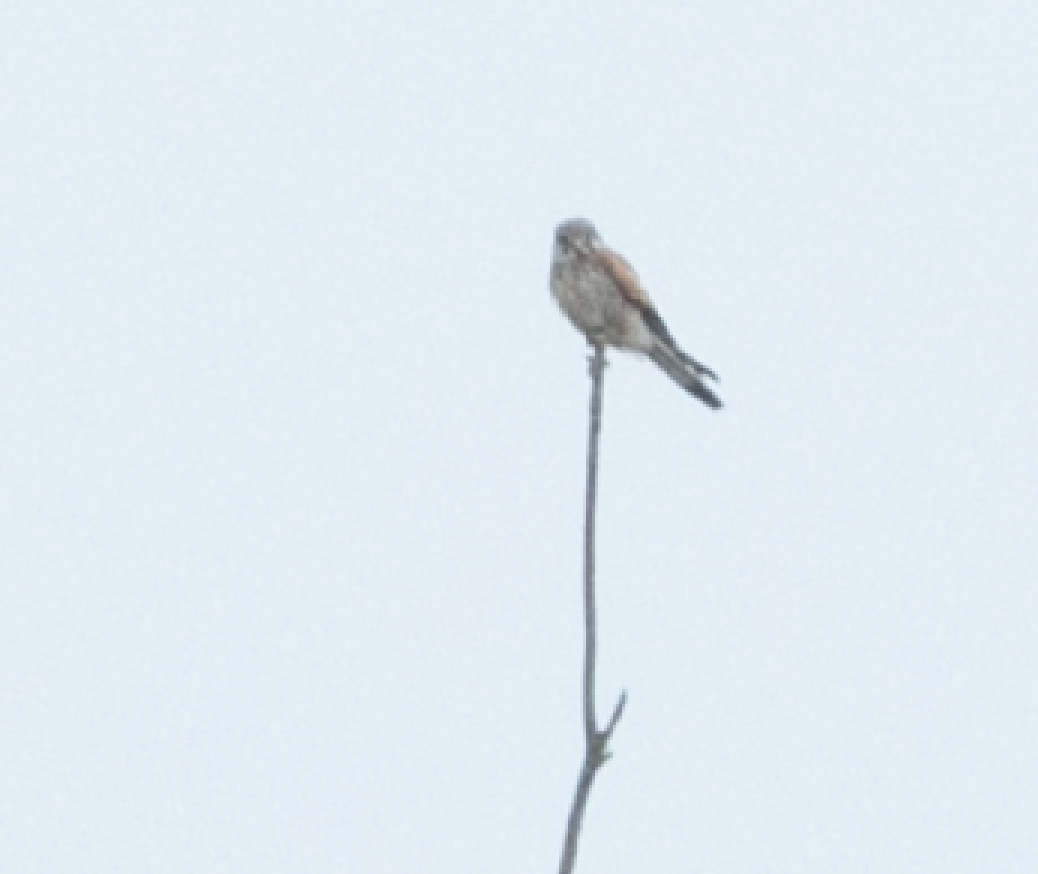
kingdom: Animalia
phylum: Chordata
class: Aves
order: Falconiformes
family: Falconidae
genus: Falco
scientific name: Falco tinnunculus
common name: Common kestrel
